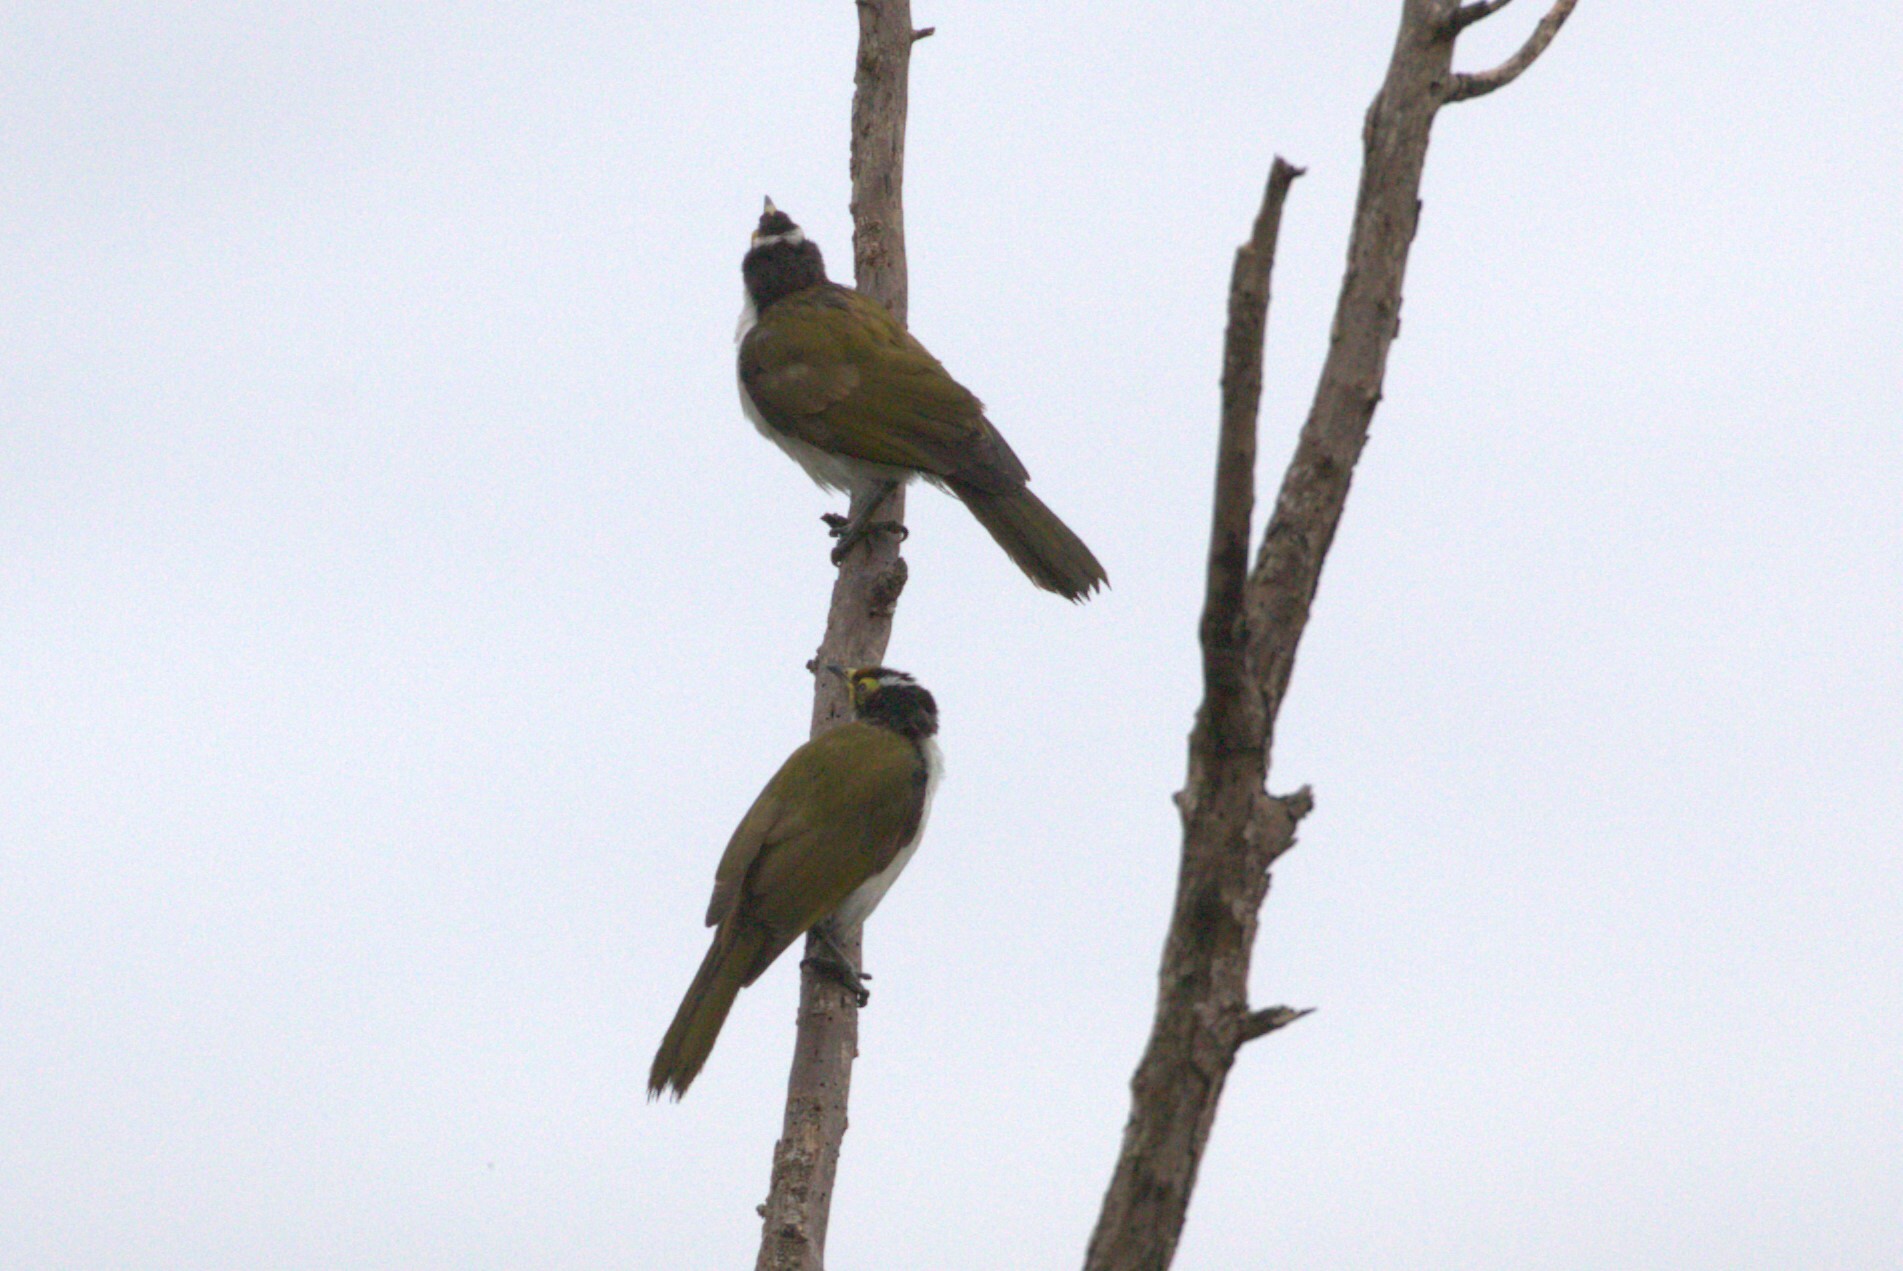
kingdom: Animalia
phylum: Chordata
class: Aves
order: Passeriformes
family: Meliphagidae
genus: Entomyzon
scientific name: Entomyzon cyanotis
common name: Blue-faced honeyeater
